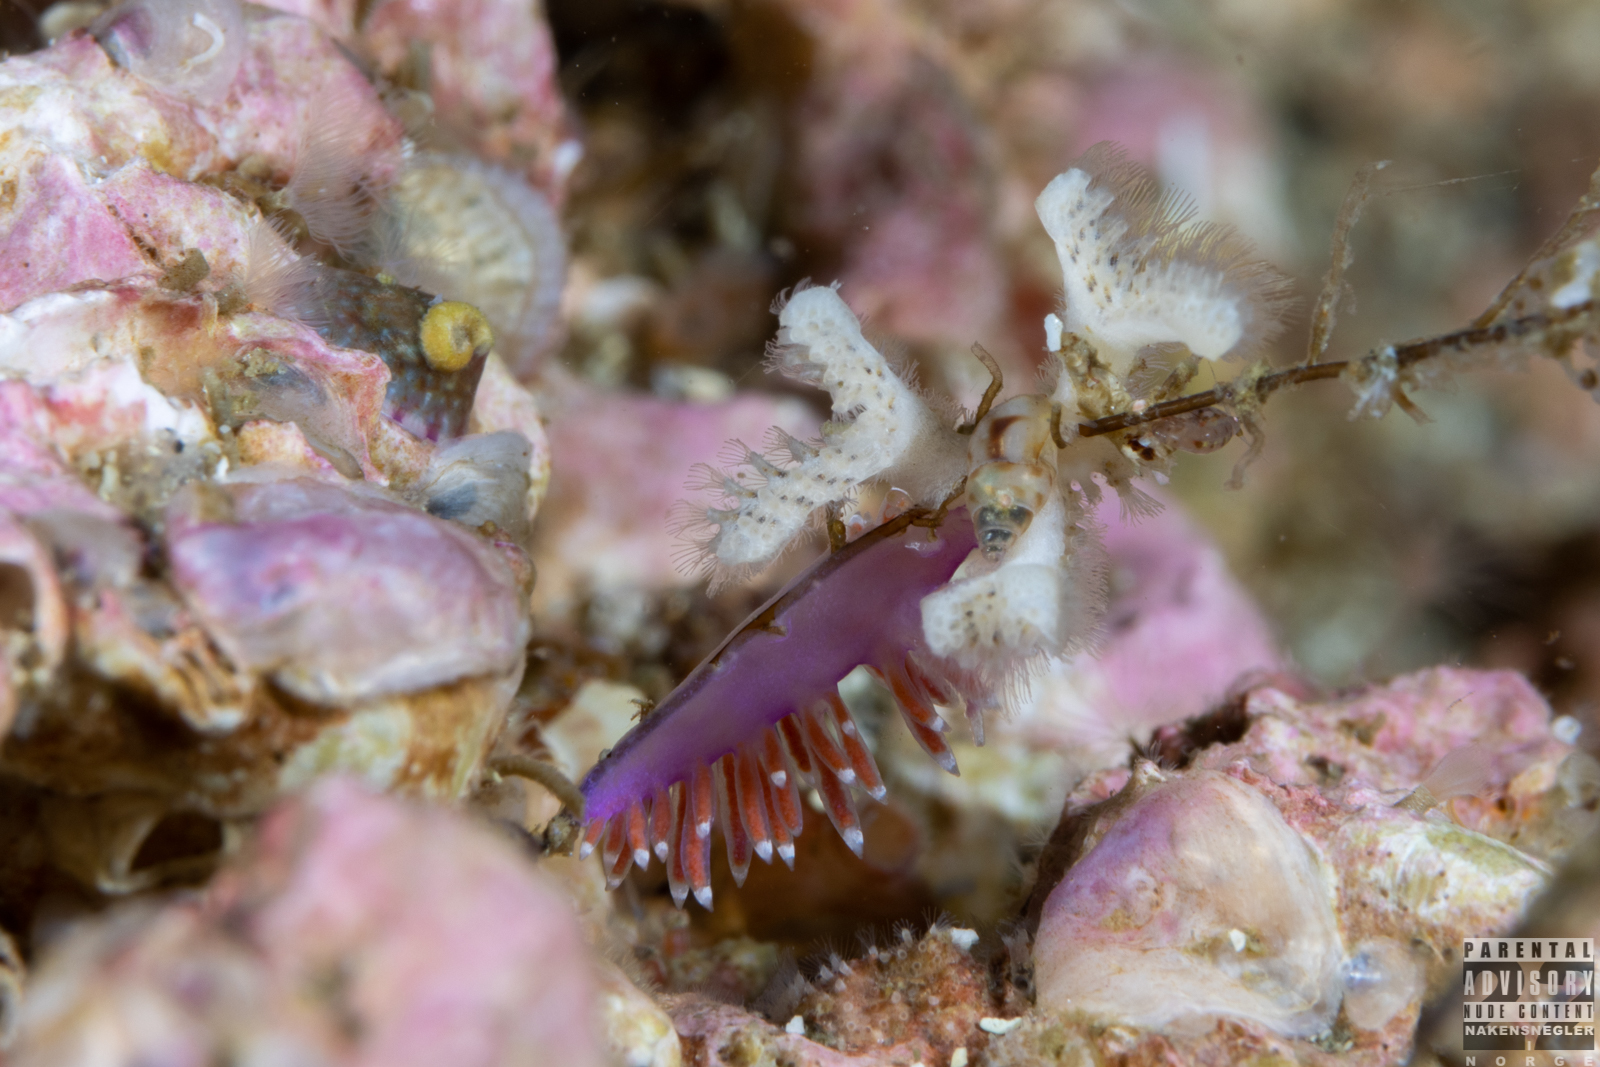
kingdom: Animalia
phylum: Mollusca
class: Gastropoda
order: Nudibranchia
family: Flabellinidae
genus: Edmundsella
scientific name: Edmundsella pedata
